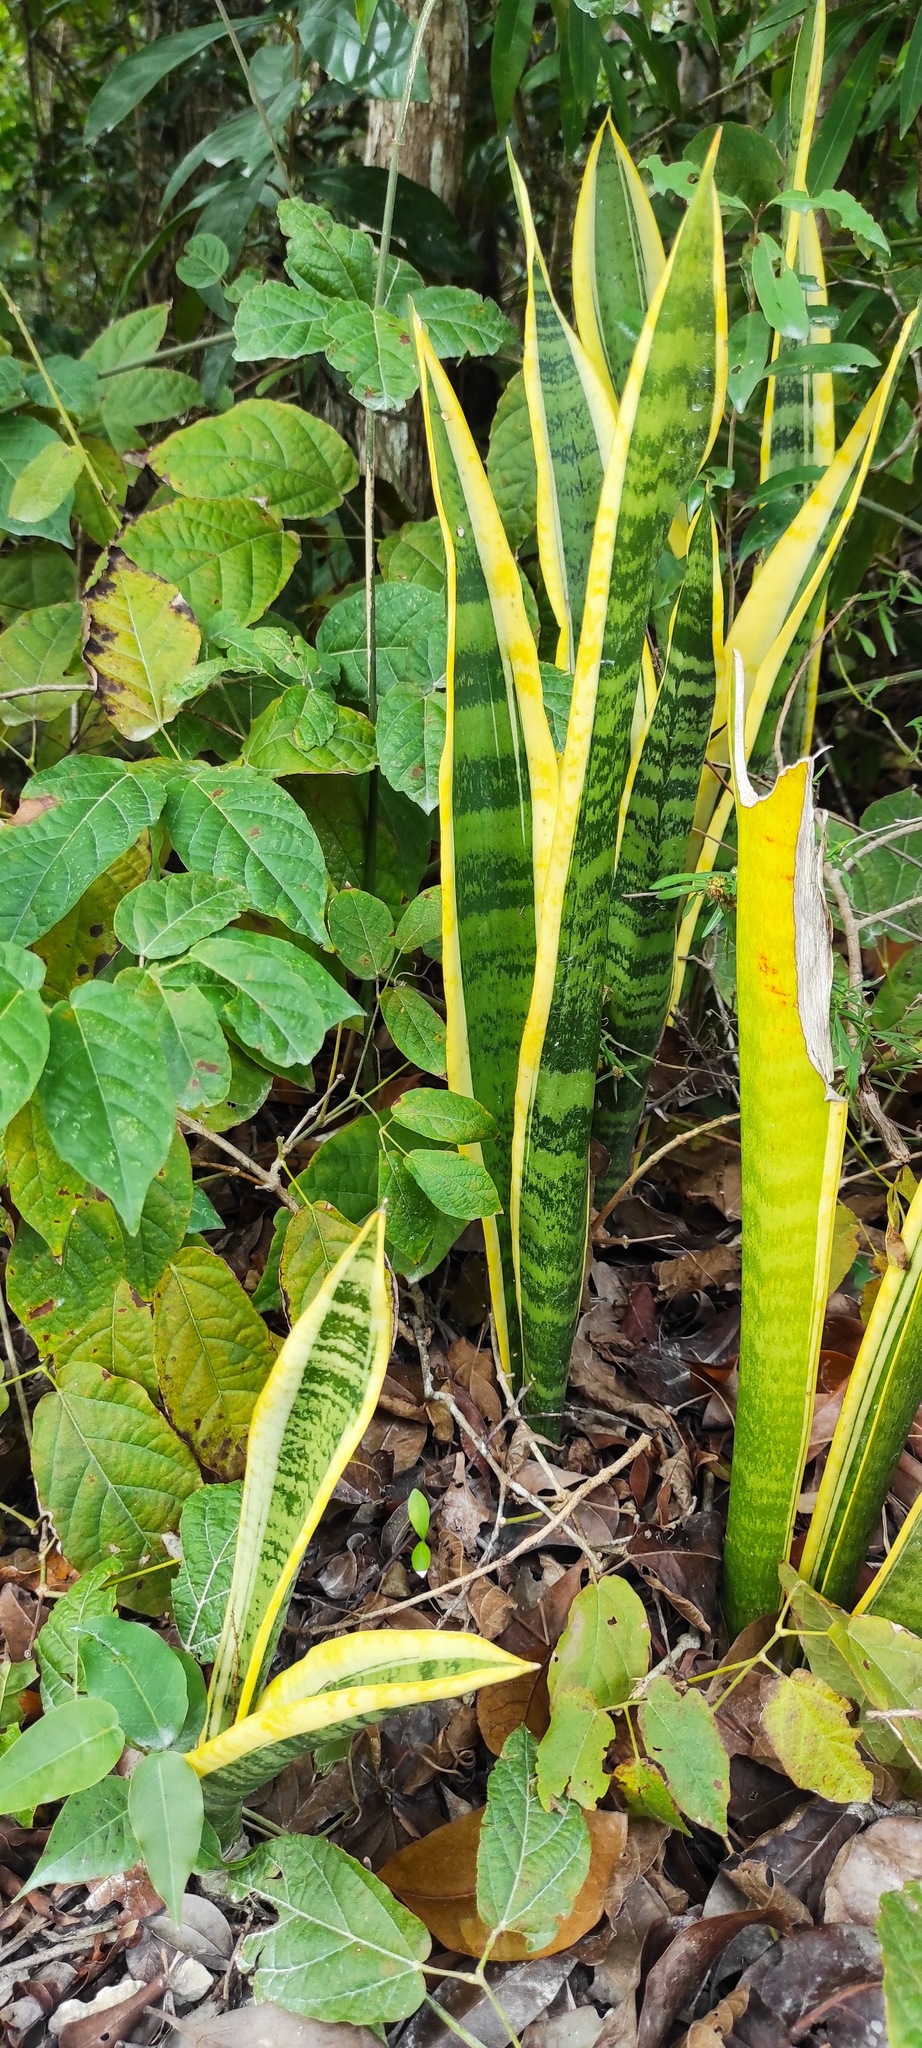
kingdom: Plantae
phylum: Tracheophyta
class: Liliopsida
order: Asparagales
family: Asparagaceae
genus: Dracaena
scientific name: Dracaena trifasciata
